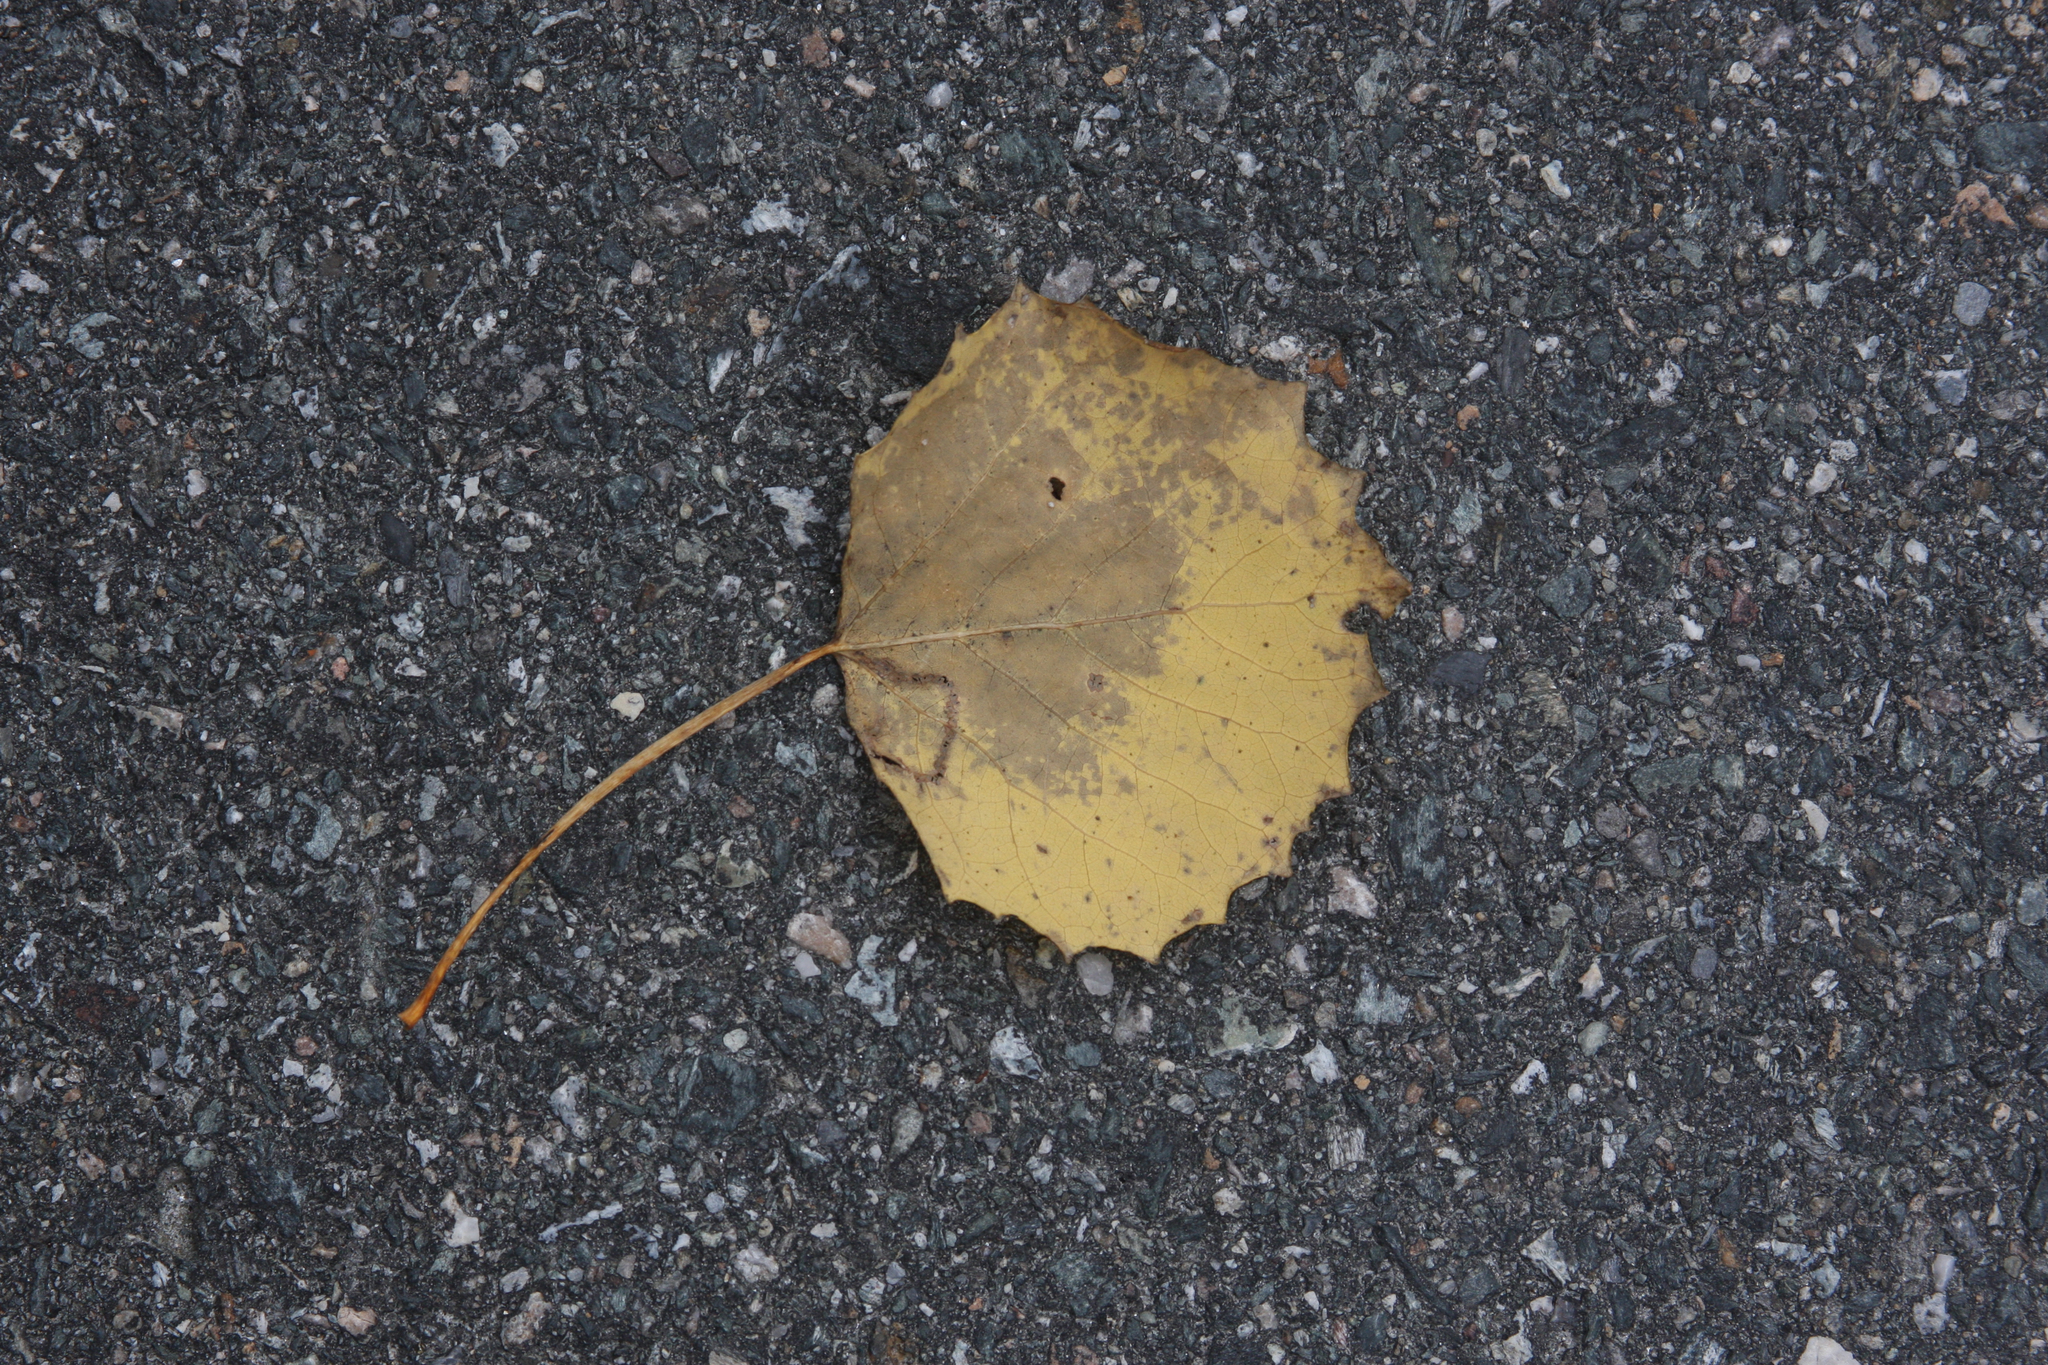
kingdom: Plantae
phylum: Tracheophyta
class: Magnoliopsida
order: Malpighiales
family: Salicaceae
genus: Populus
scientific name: Populus grandidentata
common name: Bigtooth aspen
